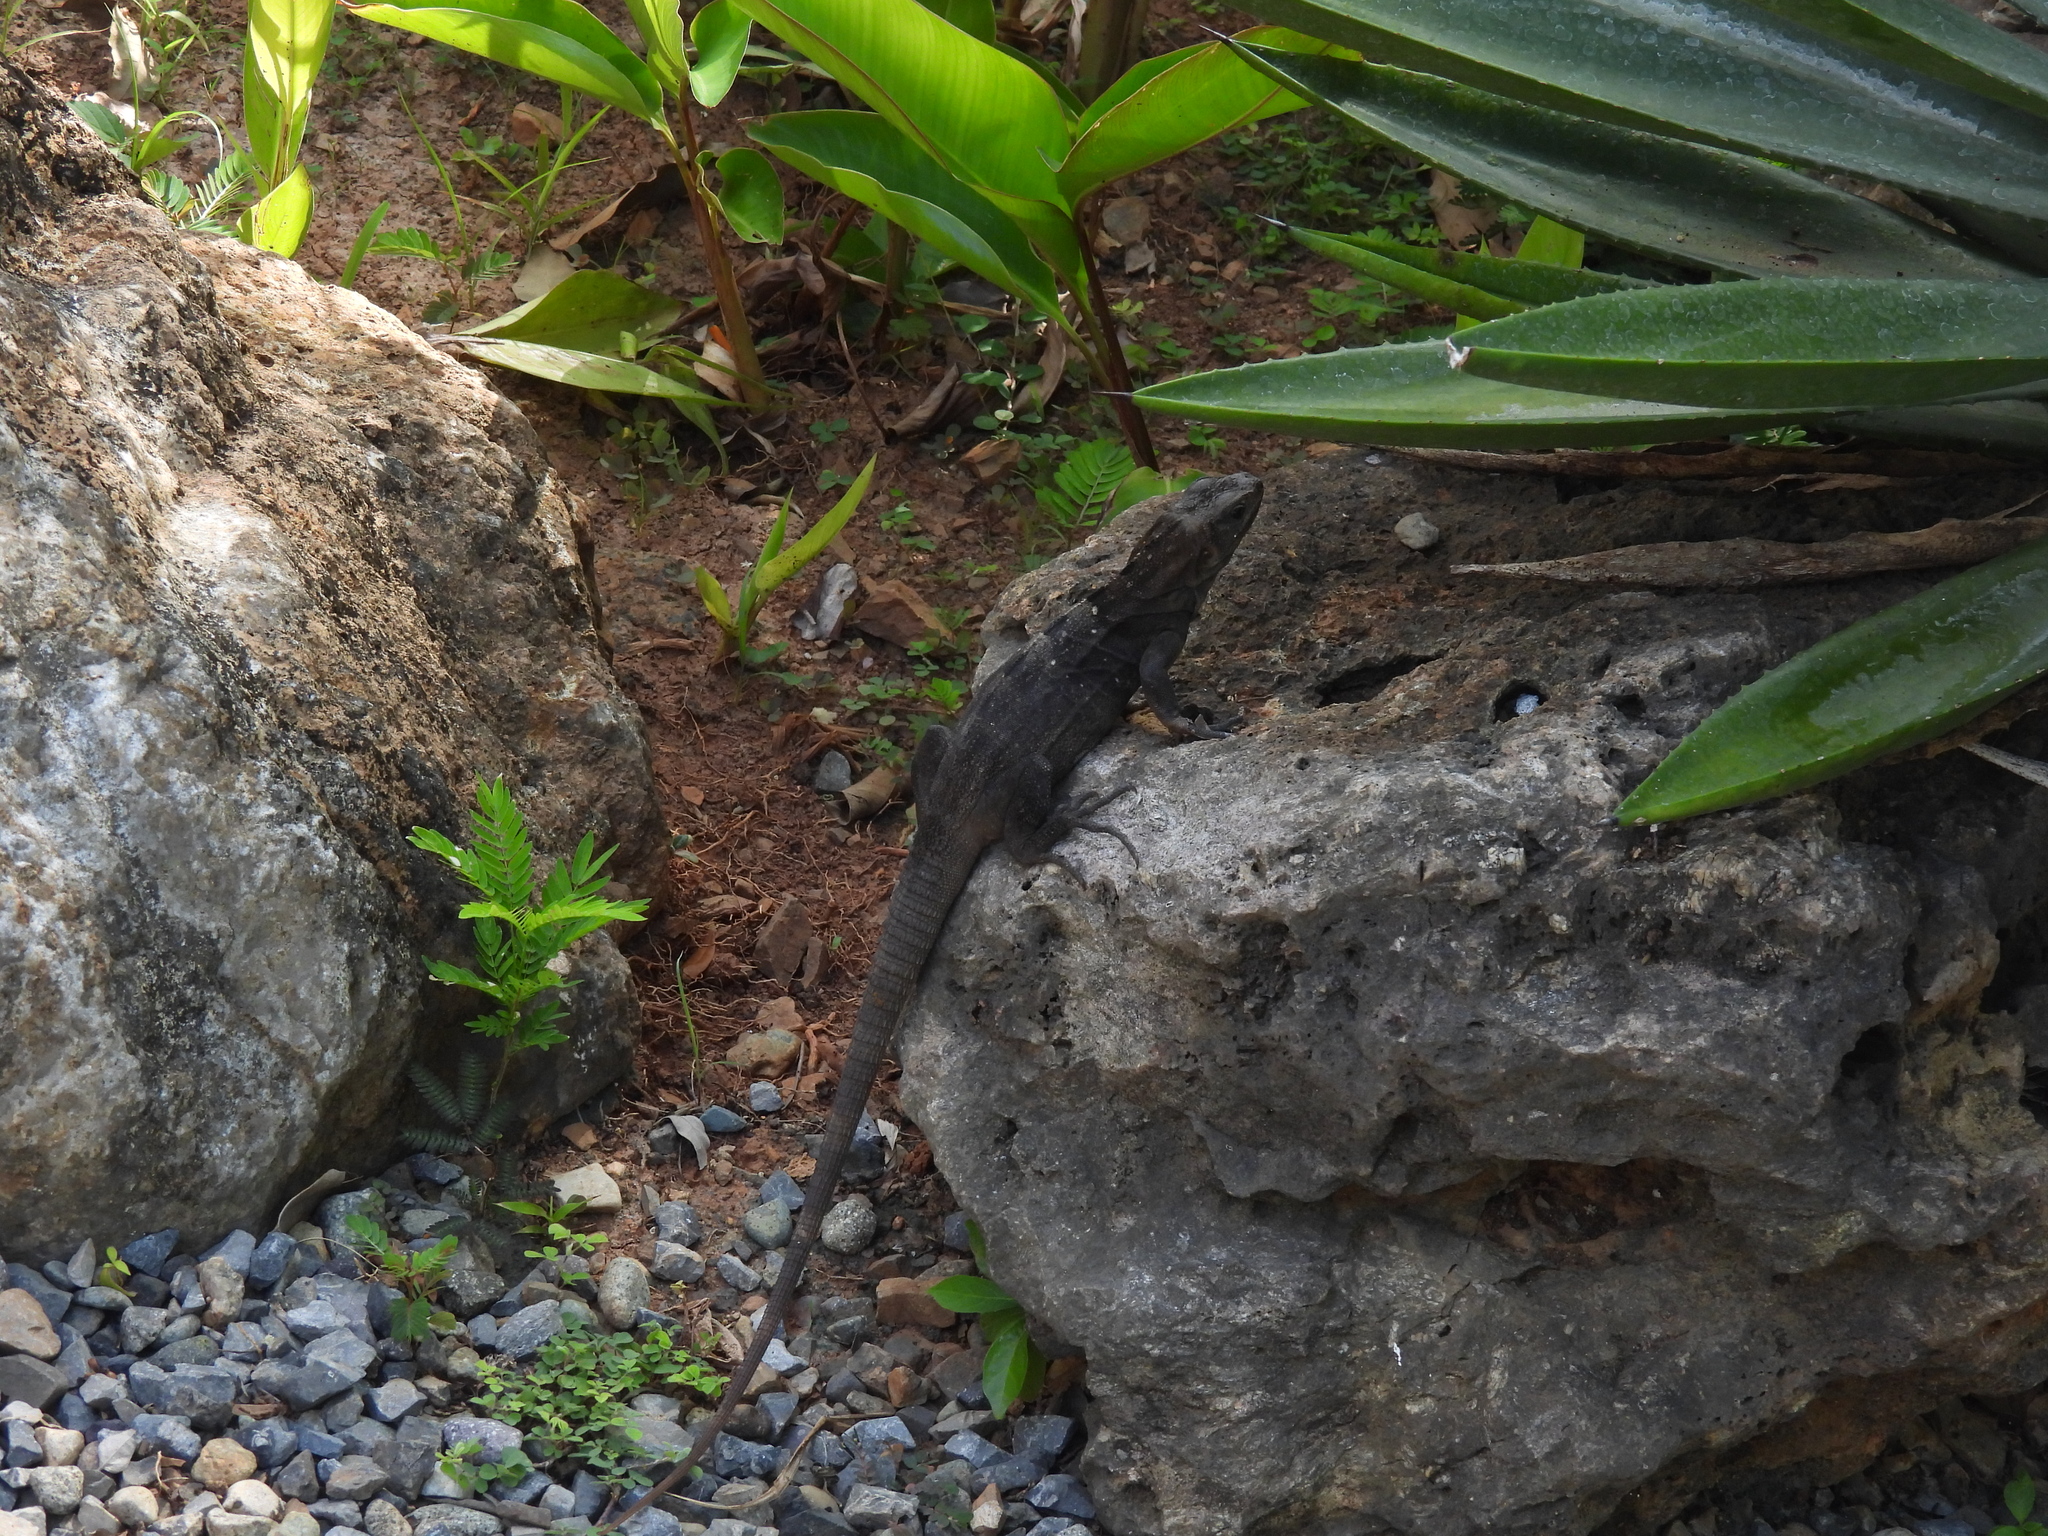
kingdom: Animalia
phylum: Chordata
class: Squamata
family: Iguanidae
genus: Ctenosaura
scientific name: Ctenosaura oedirhina
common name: Roatan spiny-tailed iguana
